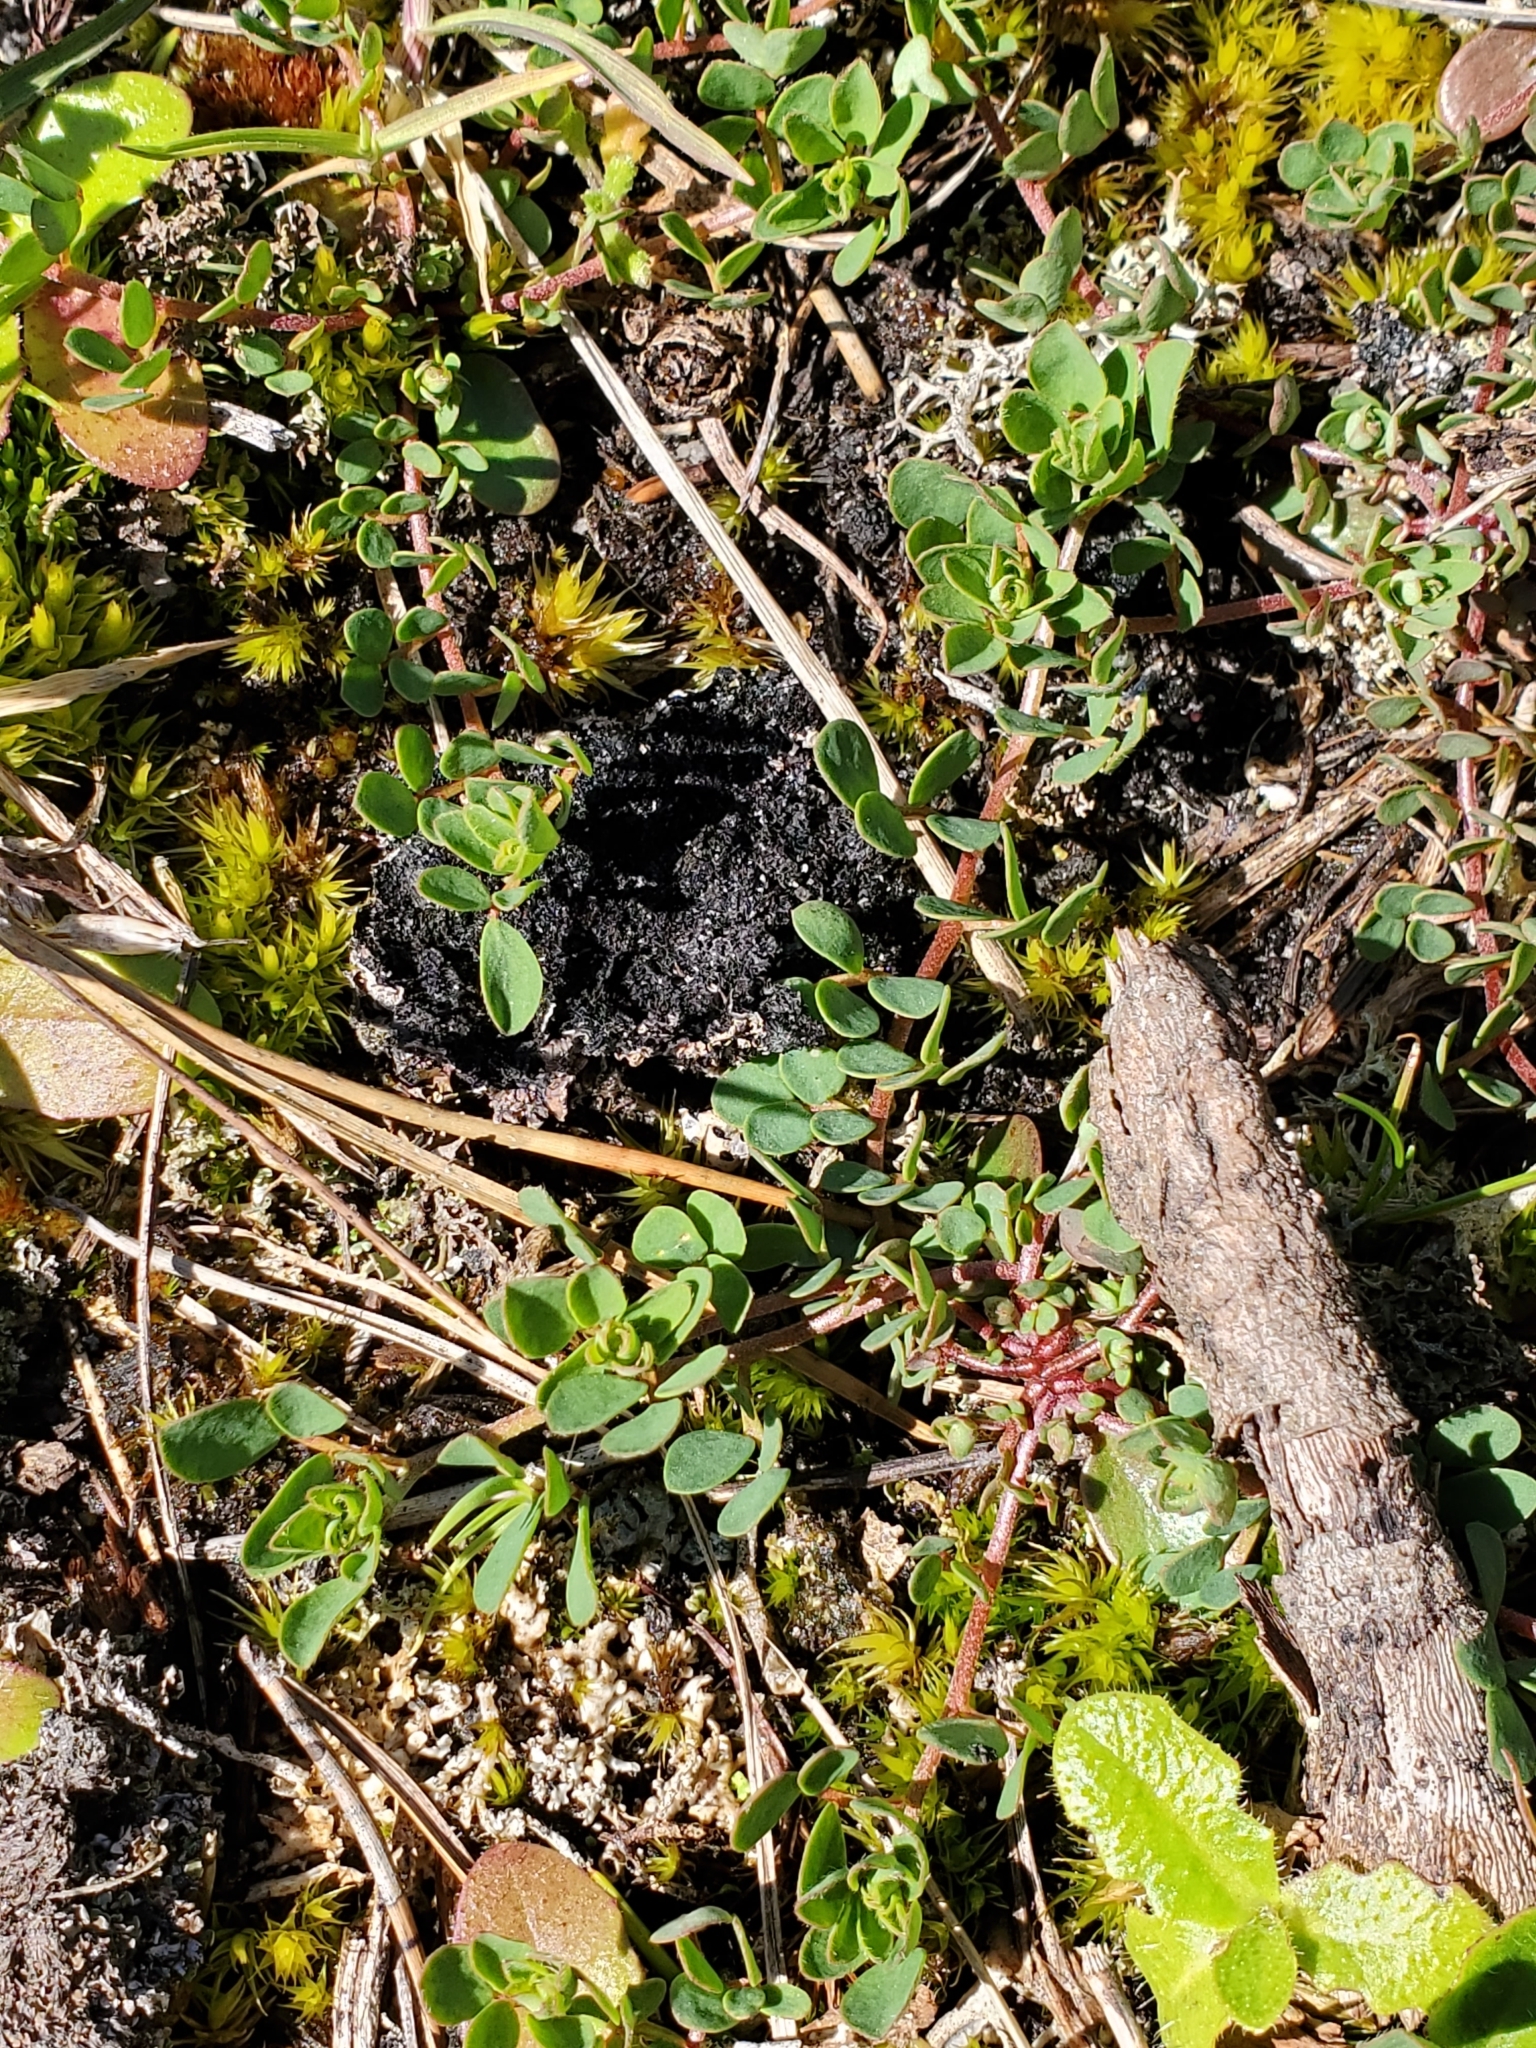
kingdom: Plantae
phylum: Tracheophyta
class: Magnoliopsida
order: Fabales
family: Fabaceae
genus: Acmispon
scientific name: Acmispon parviflorus
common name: Desert deer-vetch
